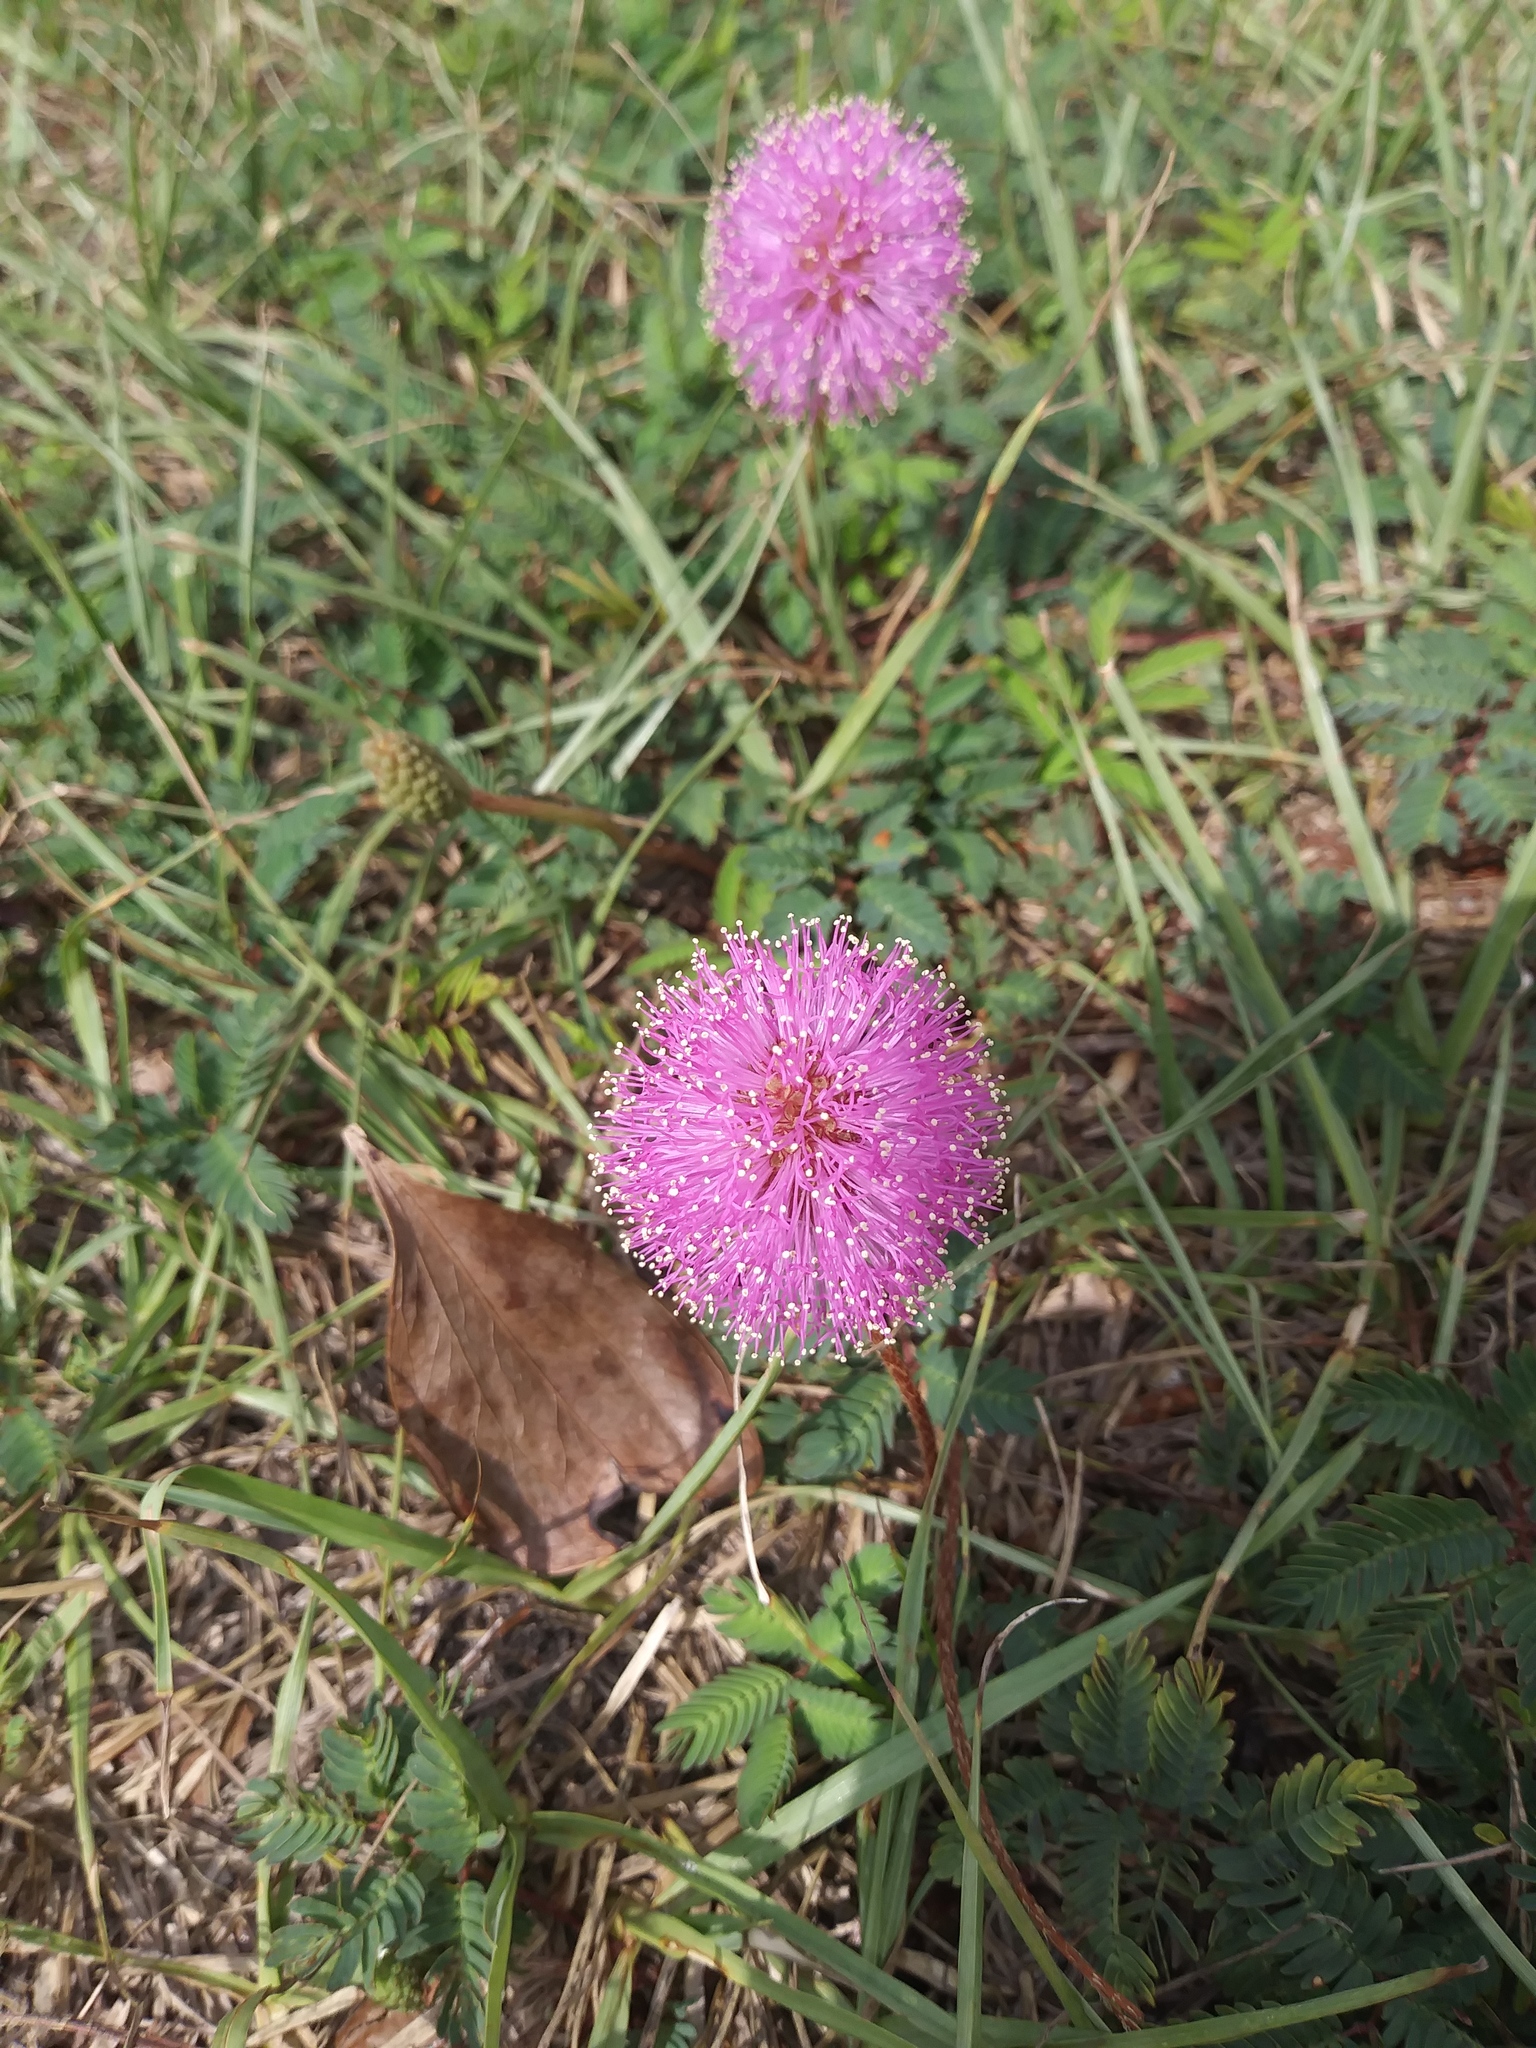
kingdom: Plantae
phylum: Tracheophyta
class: Magnoliopsida
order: Fabales
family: Fabaceae
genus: Mimosa
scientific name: Mimosa strigillosa
